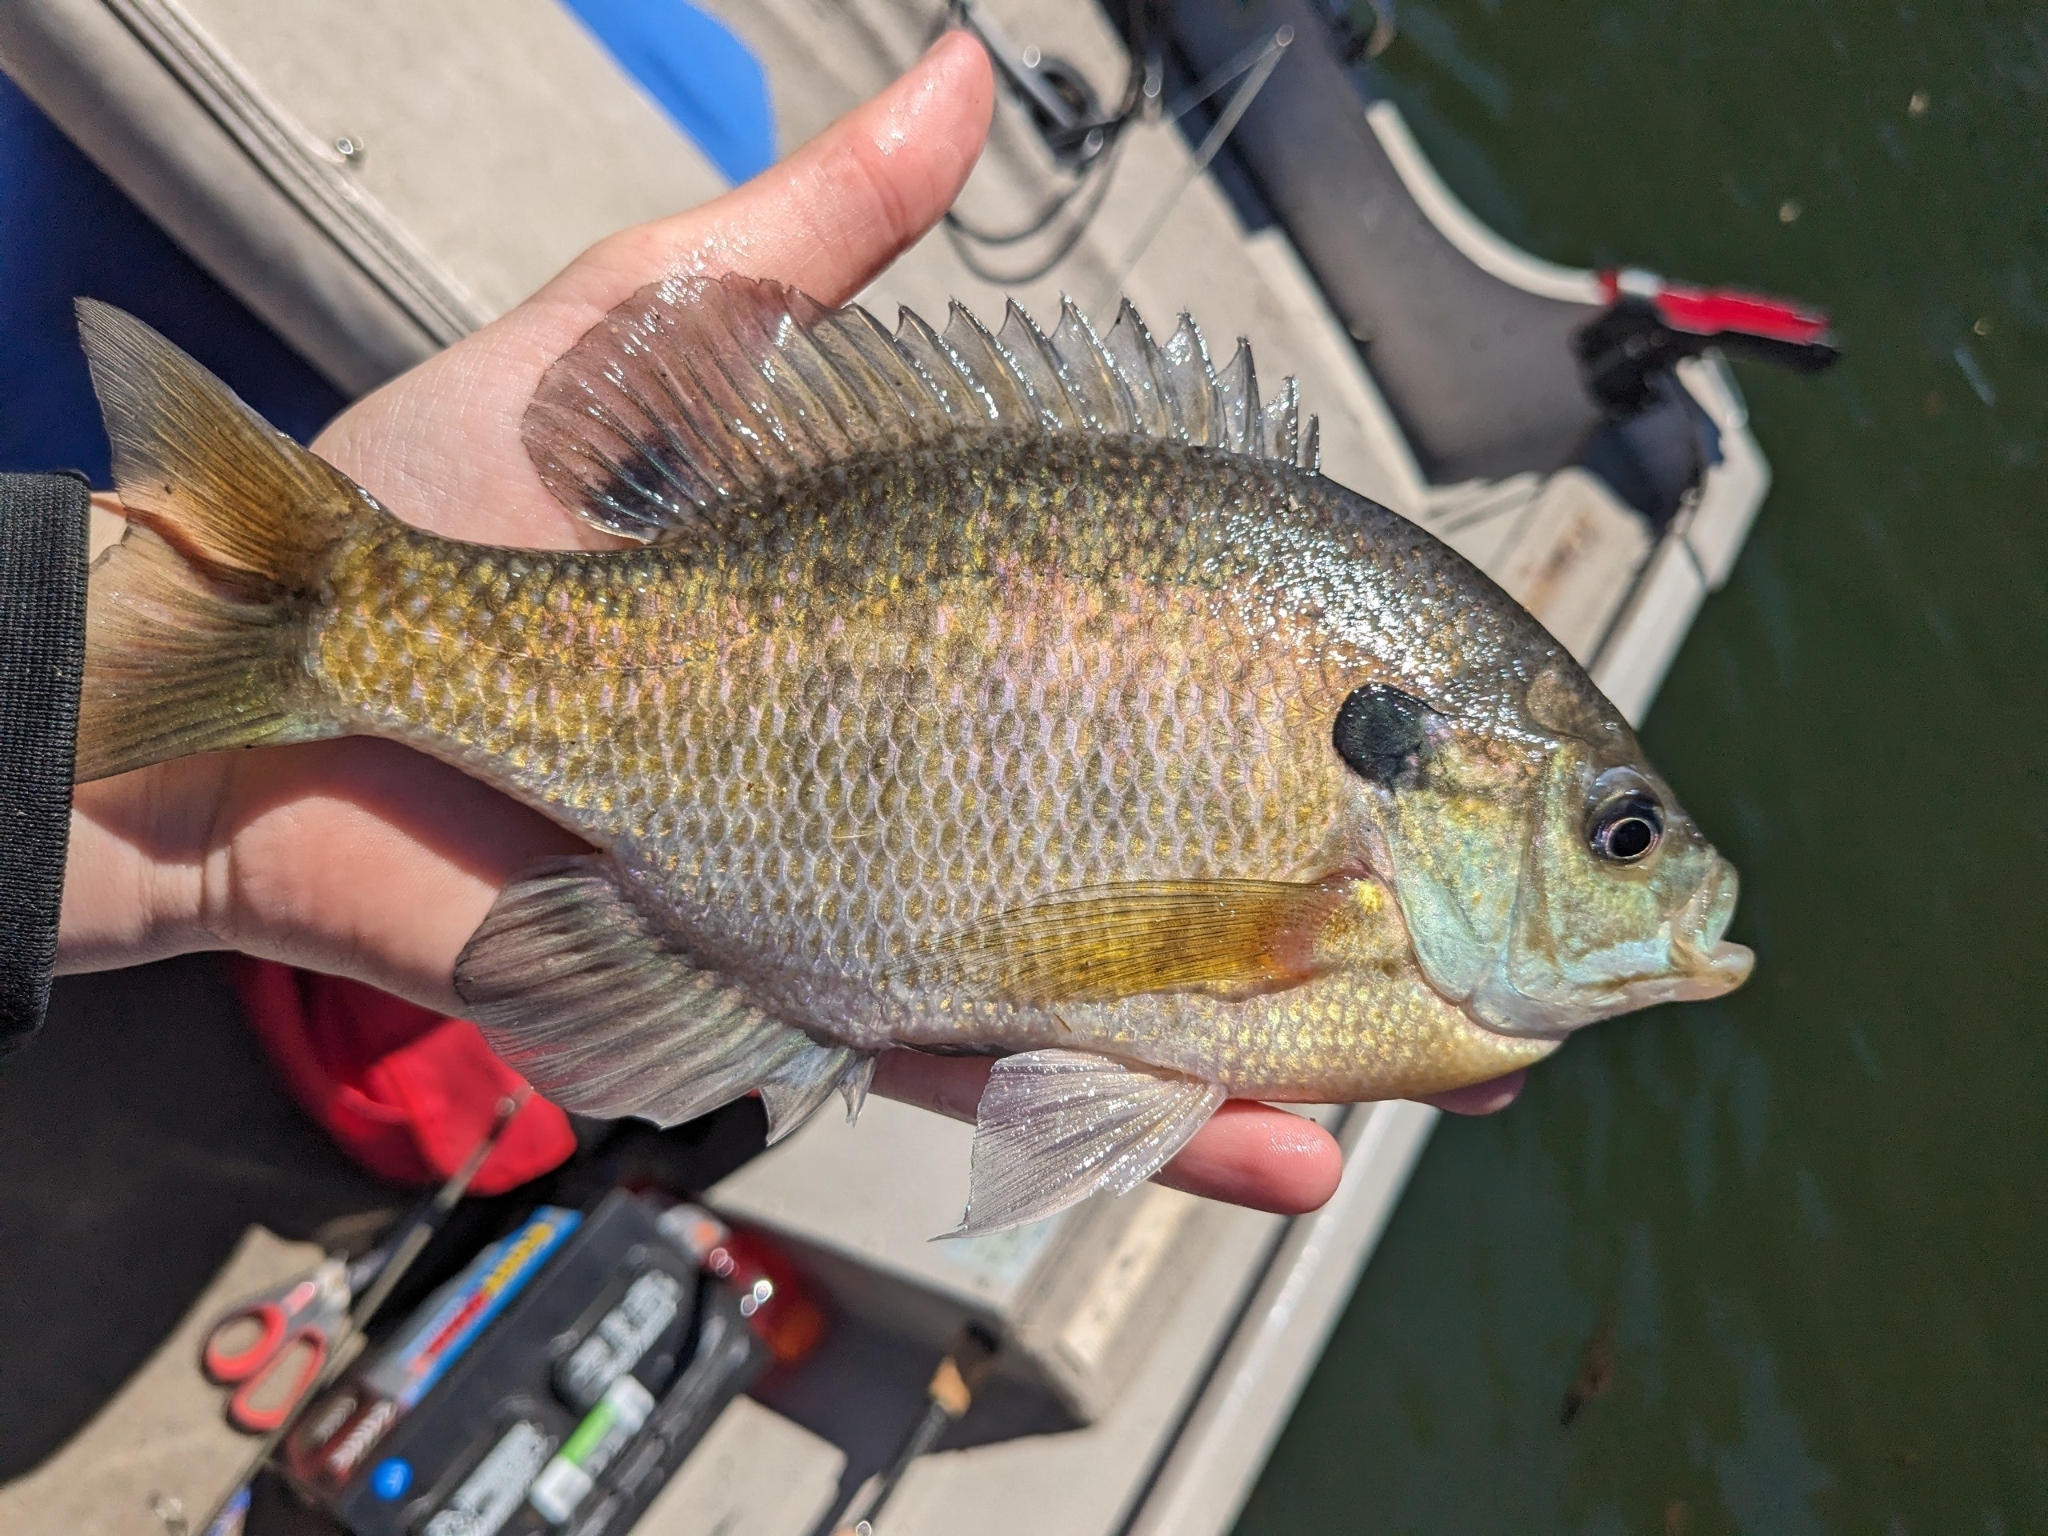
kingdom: Animalia
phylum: Chordata
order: Perciformes
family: Centrarchidae
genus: Lepomis
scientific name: Lepomis macrochirus
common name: Bluegill
